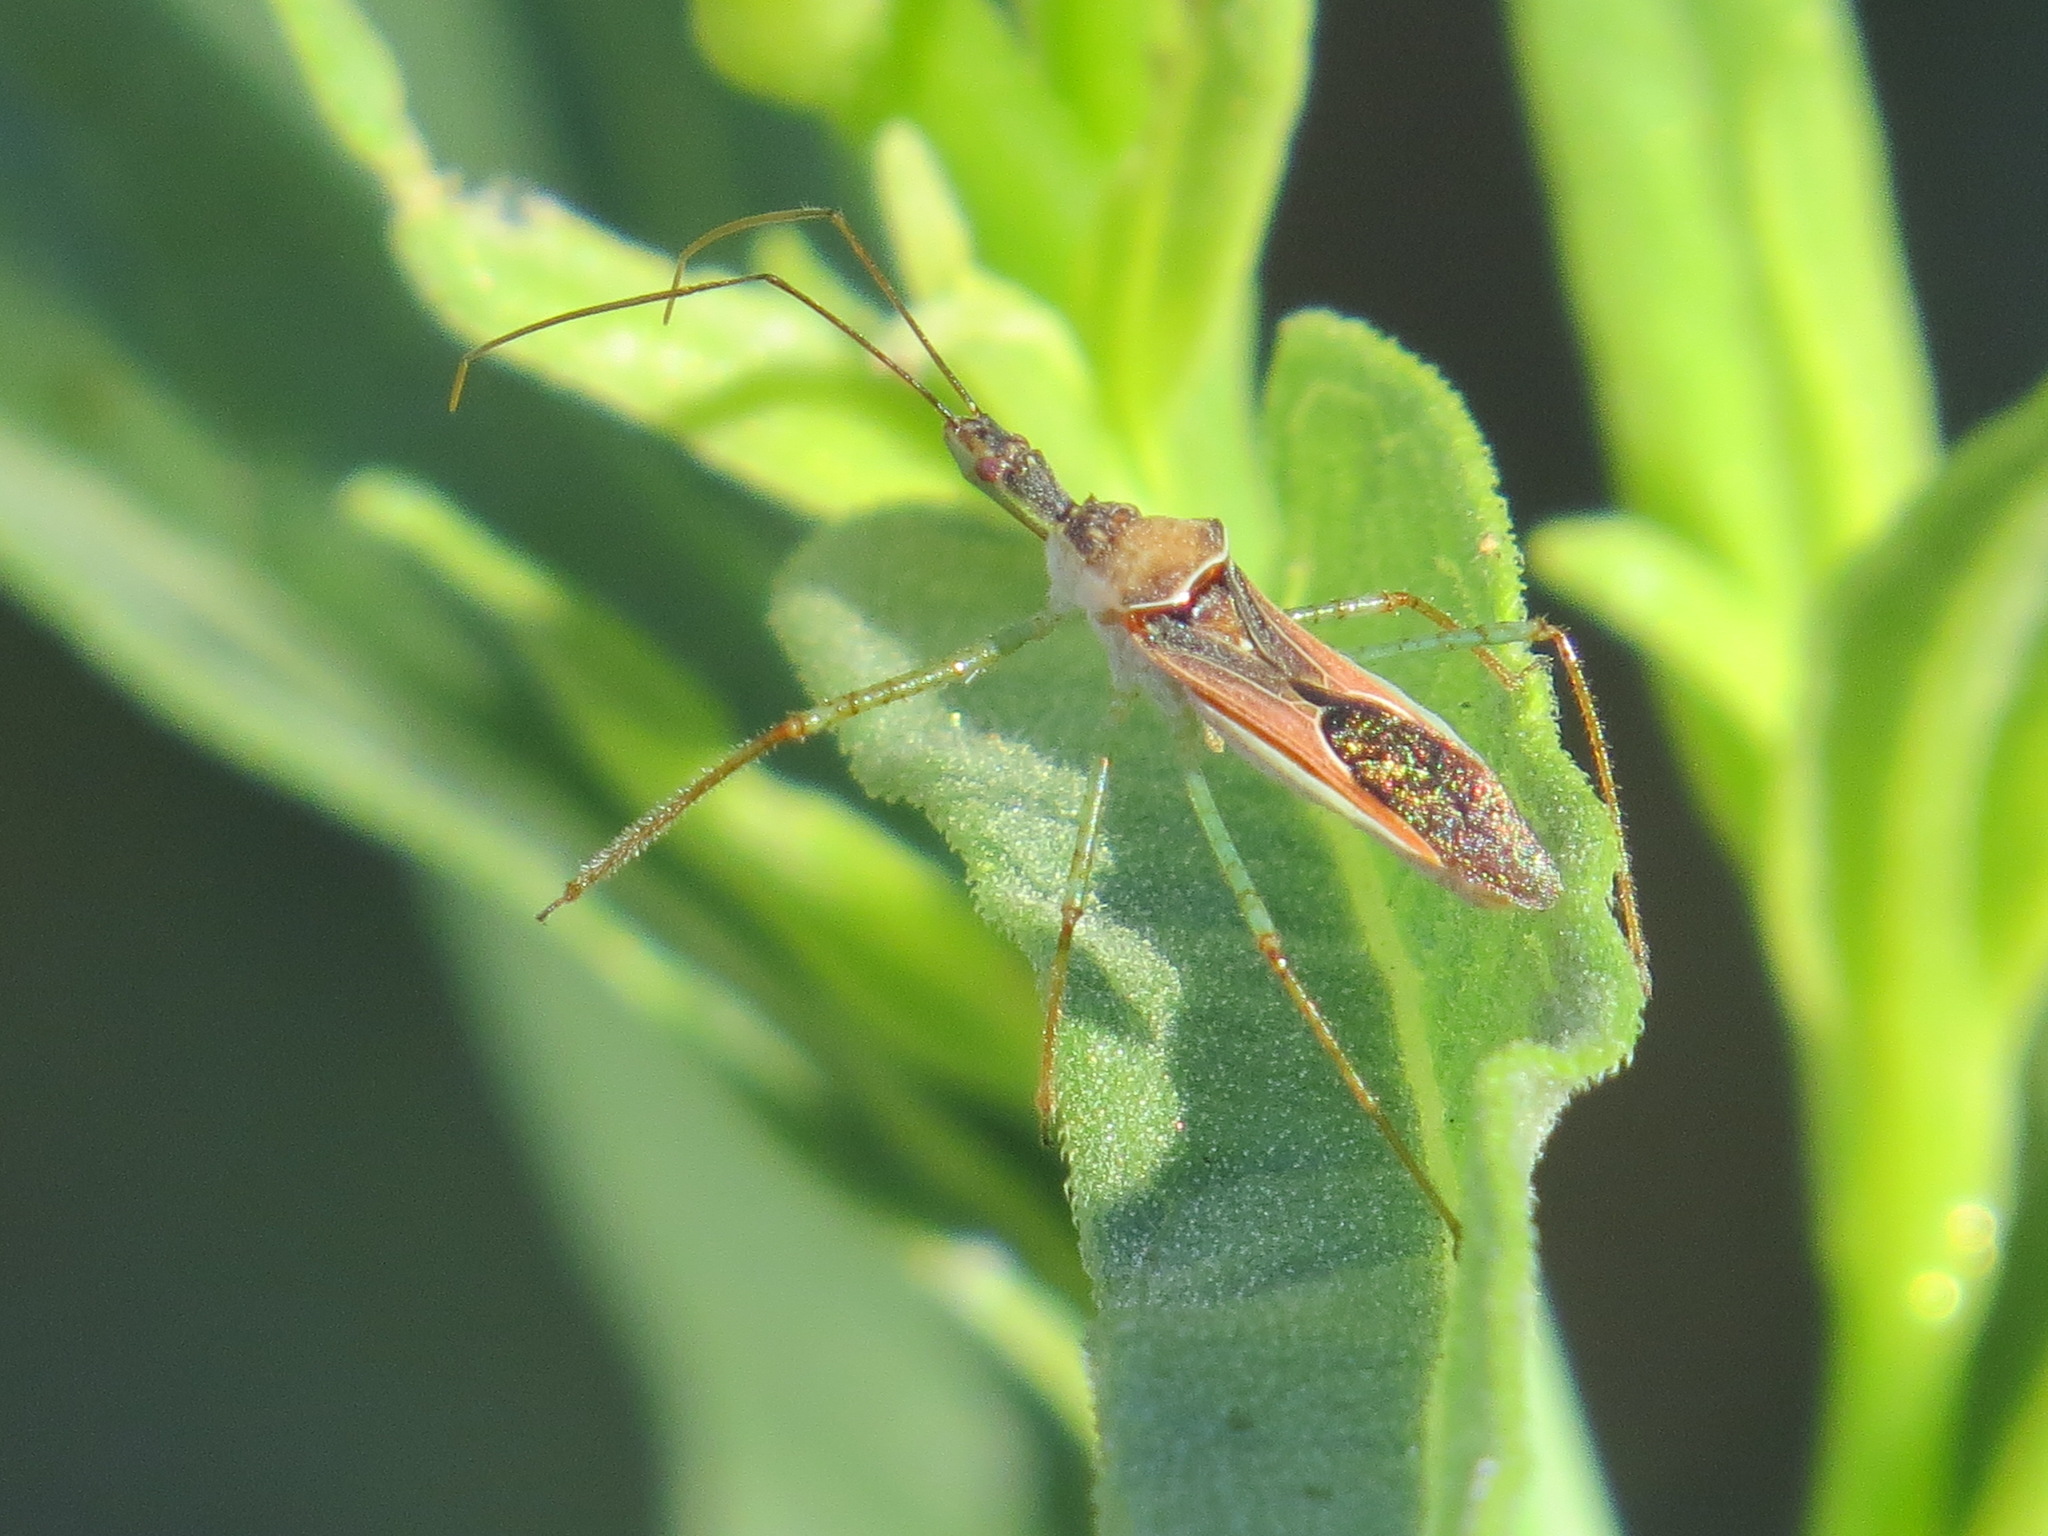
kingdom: Animalia
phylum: Arthropoda
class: Insecta
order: Hemiptera
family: Reduviidae
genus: Zelus
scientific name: Zelus renardii
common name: Assassin bug
